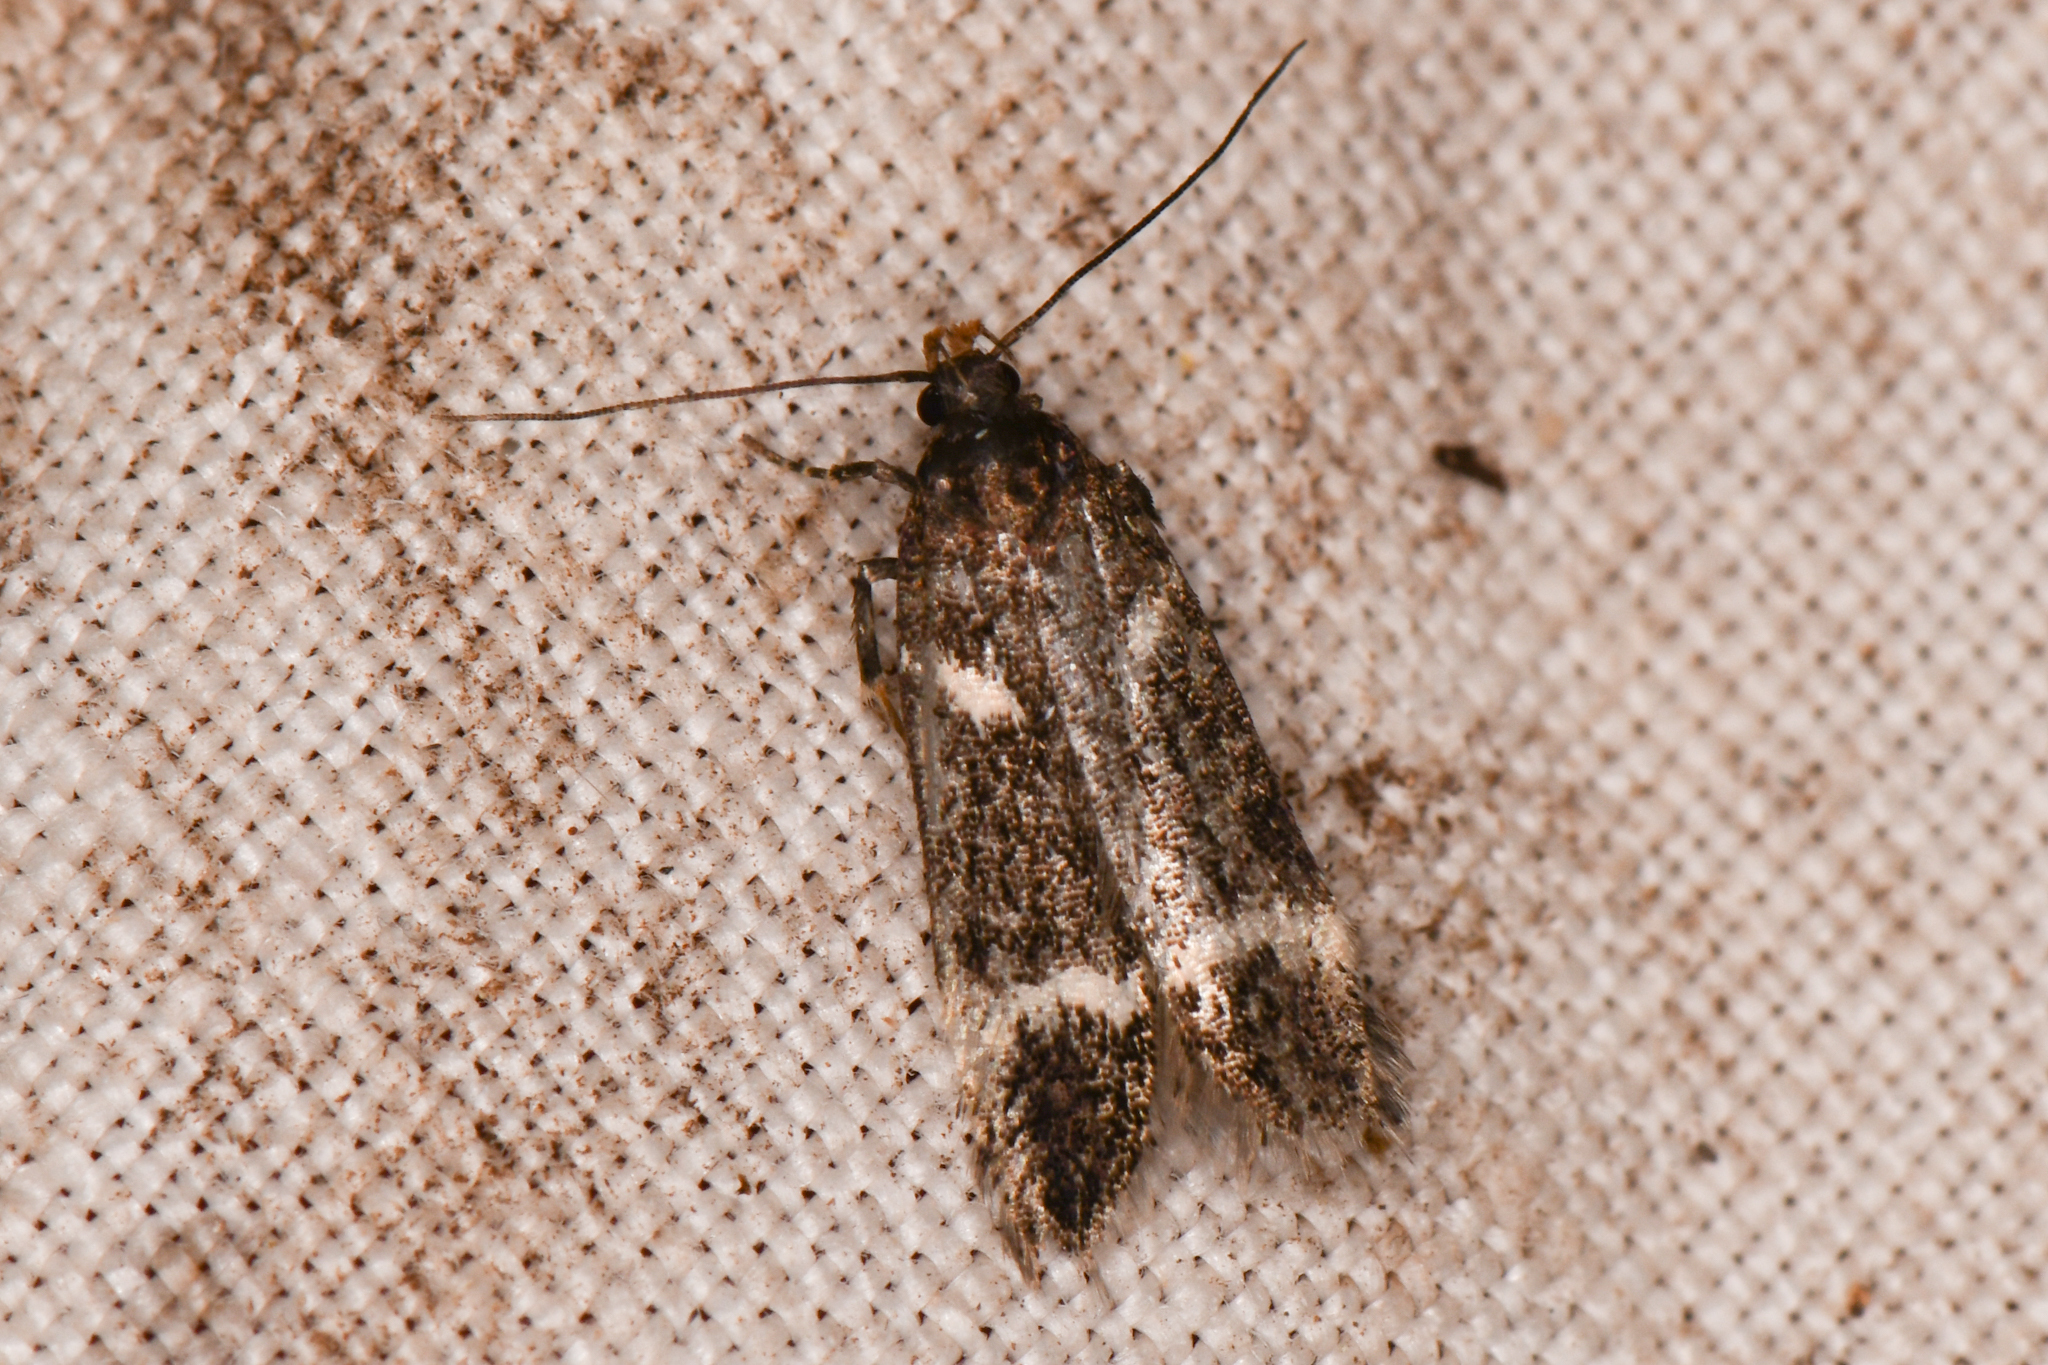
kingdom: Animalia
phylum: Arthropoda
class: Insecta
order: Lepidoptera
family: Gelechiidae
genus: Chionodes
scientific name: Chionodes lugubrella
